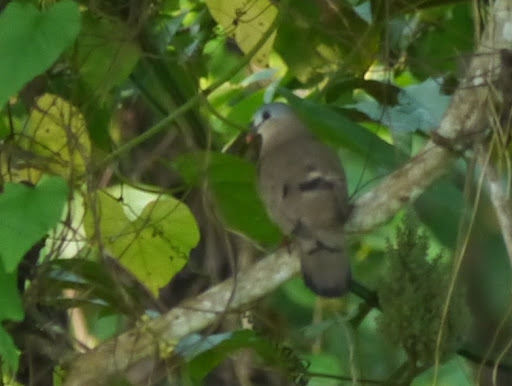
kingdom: Animalia
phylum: Chordata
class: Aves
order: Columbiformes
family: Columbidae
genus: Turtur
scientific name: Turtur afer
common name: Blue-spotted wood dove
